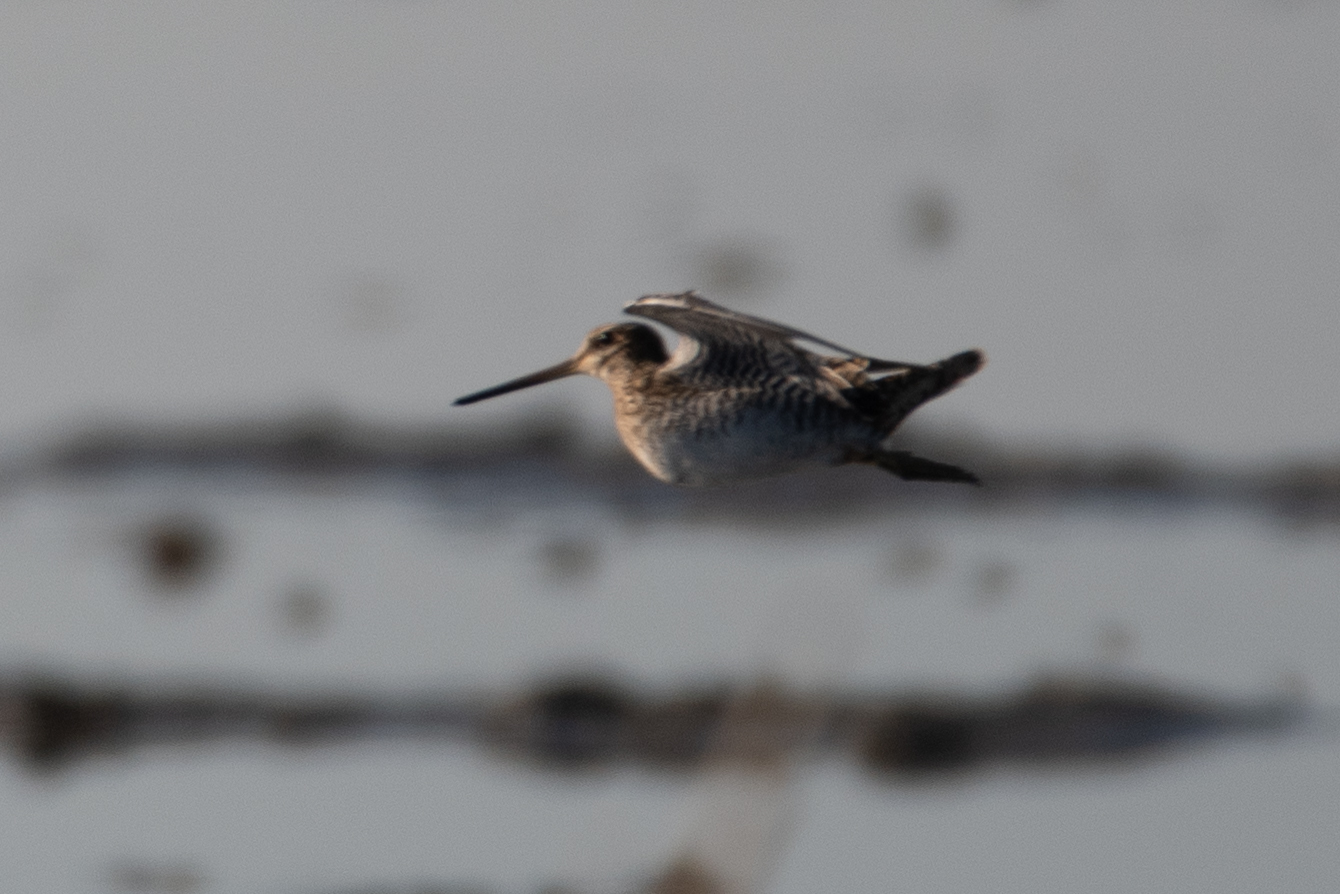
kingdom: Animalia
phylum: Chordata
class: Aves
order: Charadriiformes
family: Scolopacidae
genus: Gallinago
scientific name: Gallinago delicata
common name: Wilson's snipe
